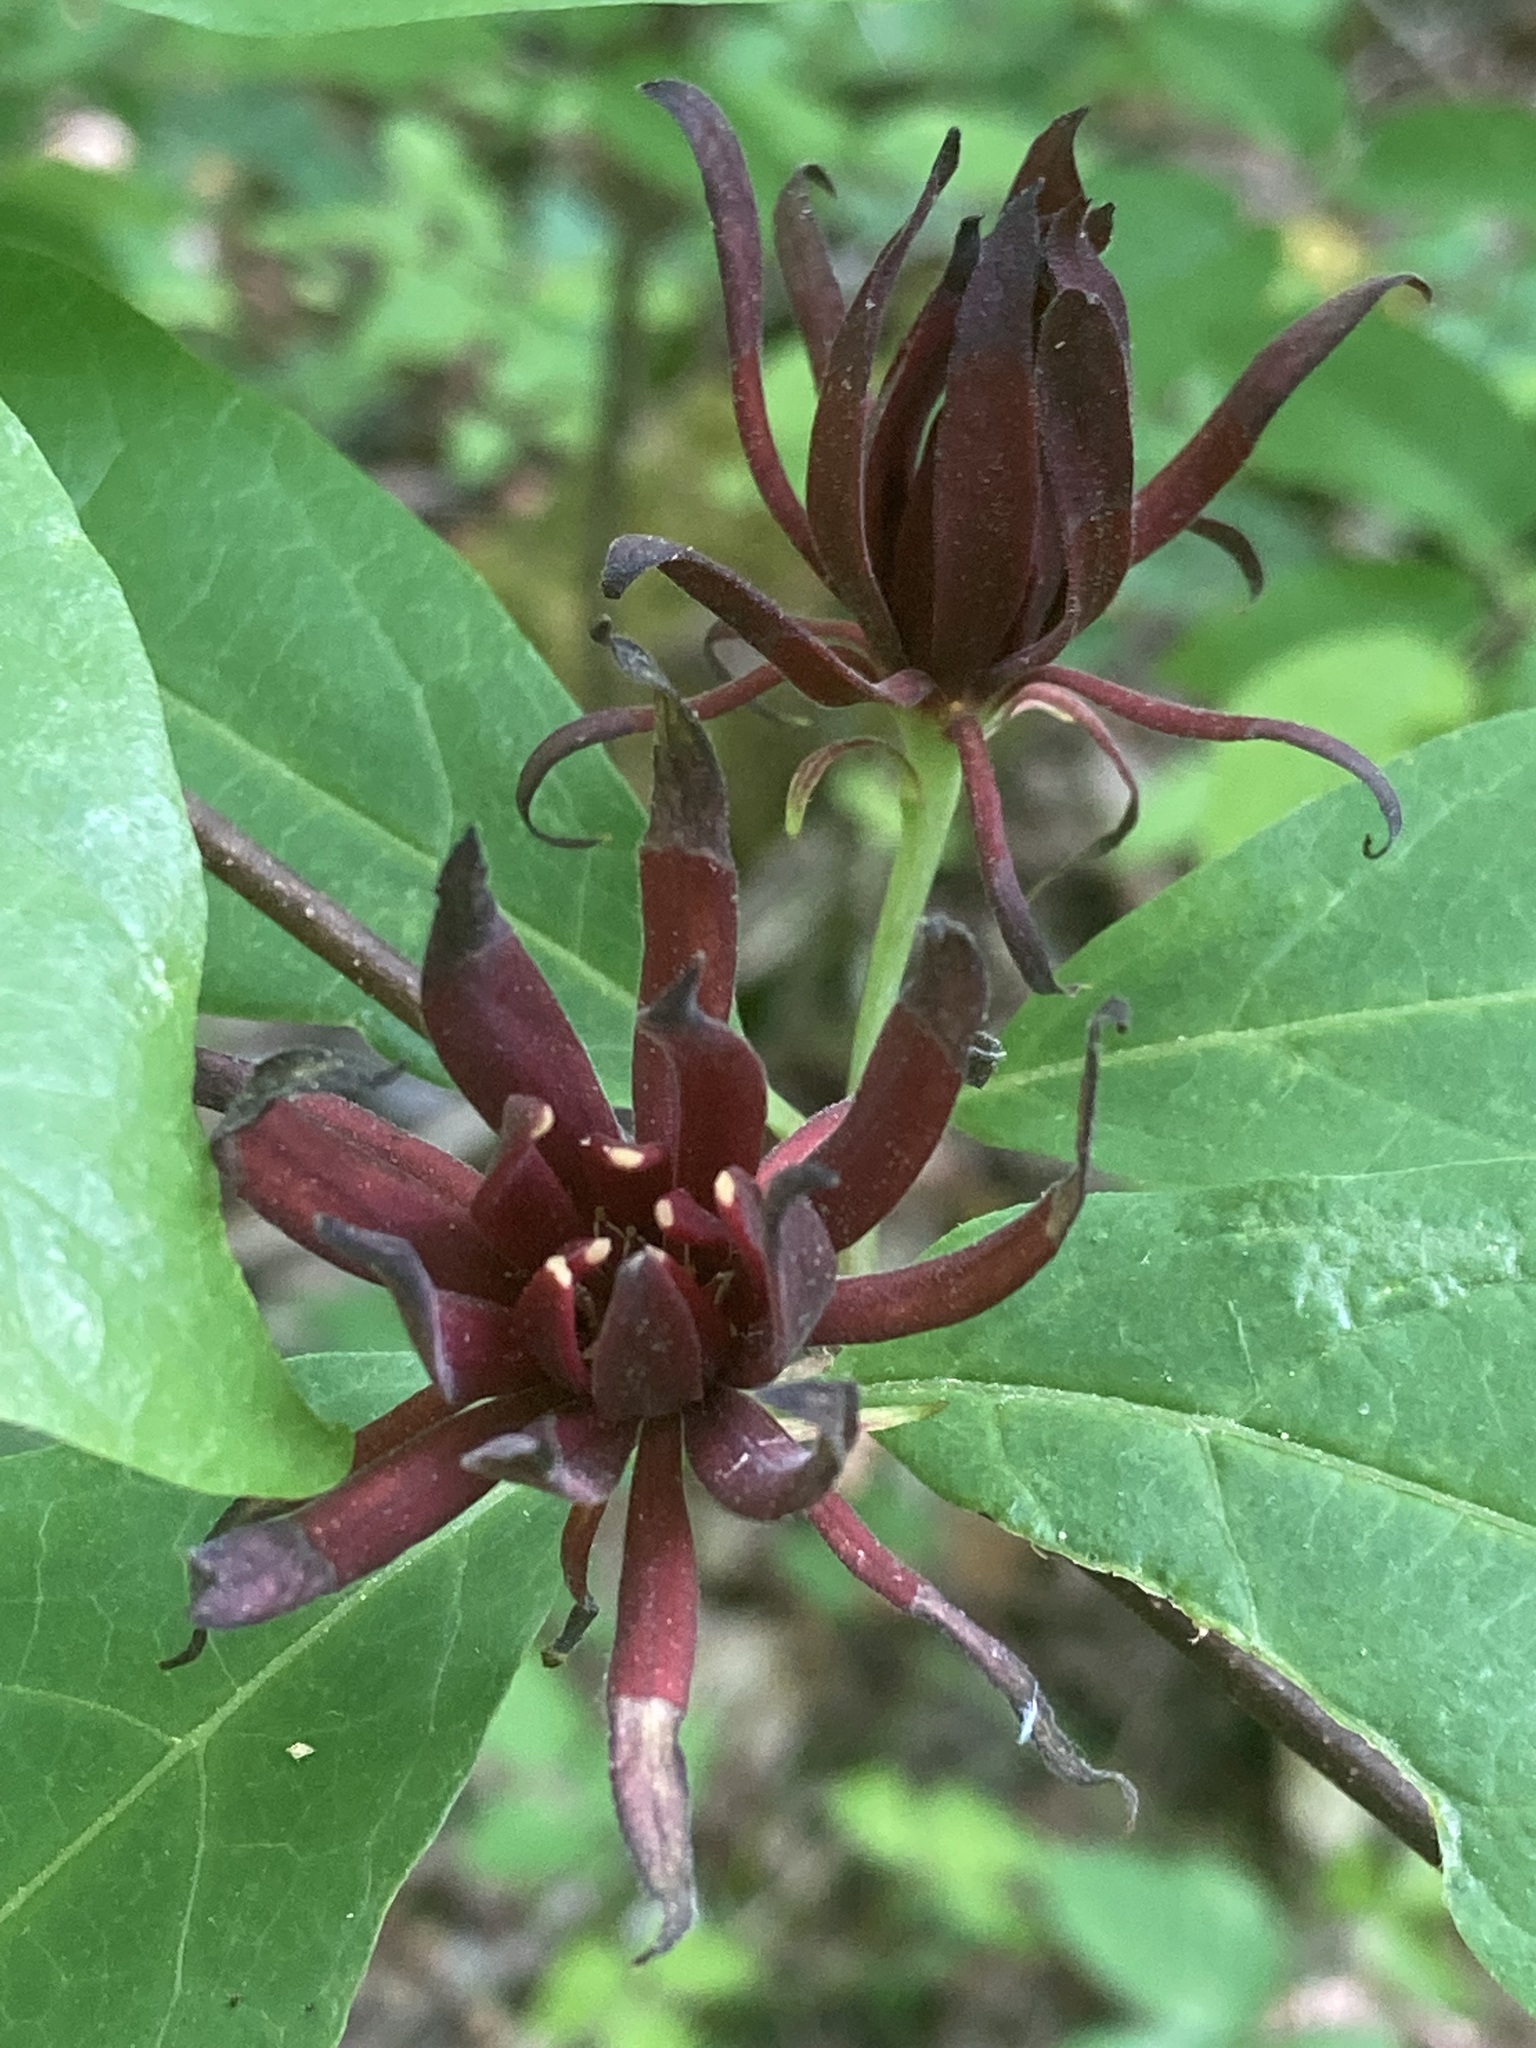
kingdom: Plantae
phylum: Tracheophyta
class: Magnoliopsida
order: Laurales
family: Calycanthaceae
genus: Calycanthus
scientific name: Calycanthus floridus
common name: Carolina-allspice
